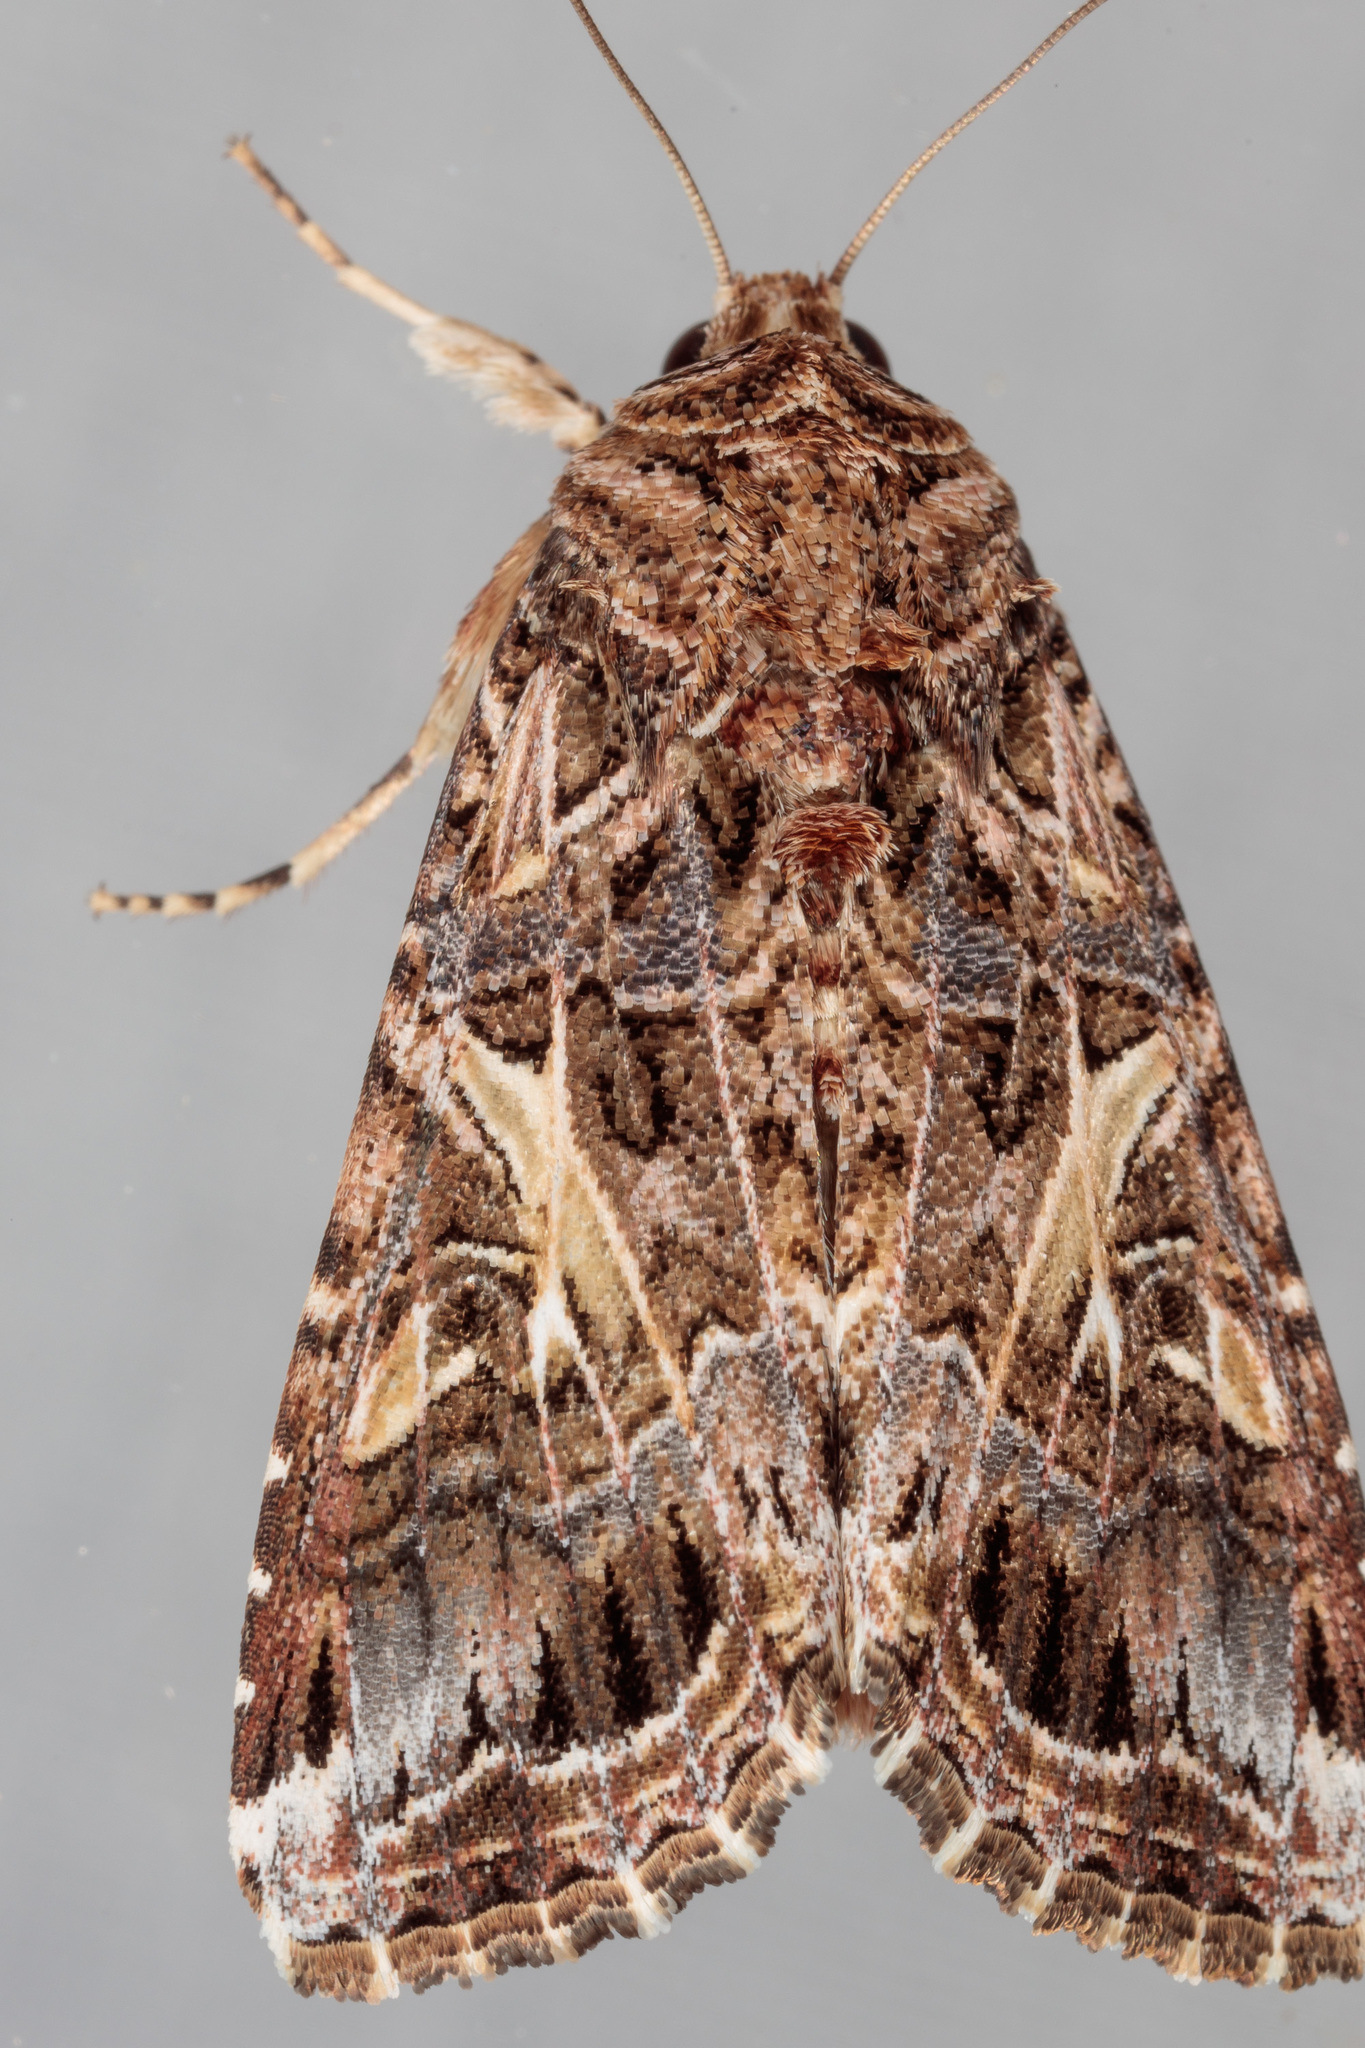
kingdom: Animalia
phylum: Arthropoda
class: Insecta
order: Lepidoptera
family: Noctuidae
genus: Spodoptera
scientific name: Spodoptera ornithogalli
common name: Yellow-striped armyworm
